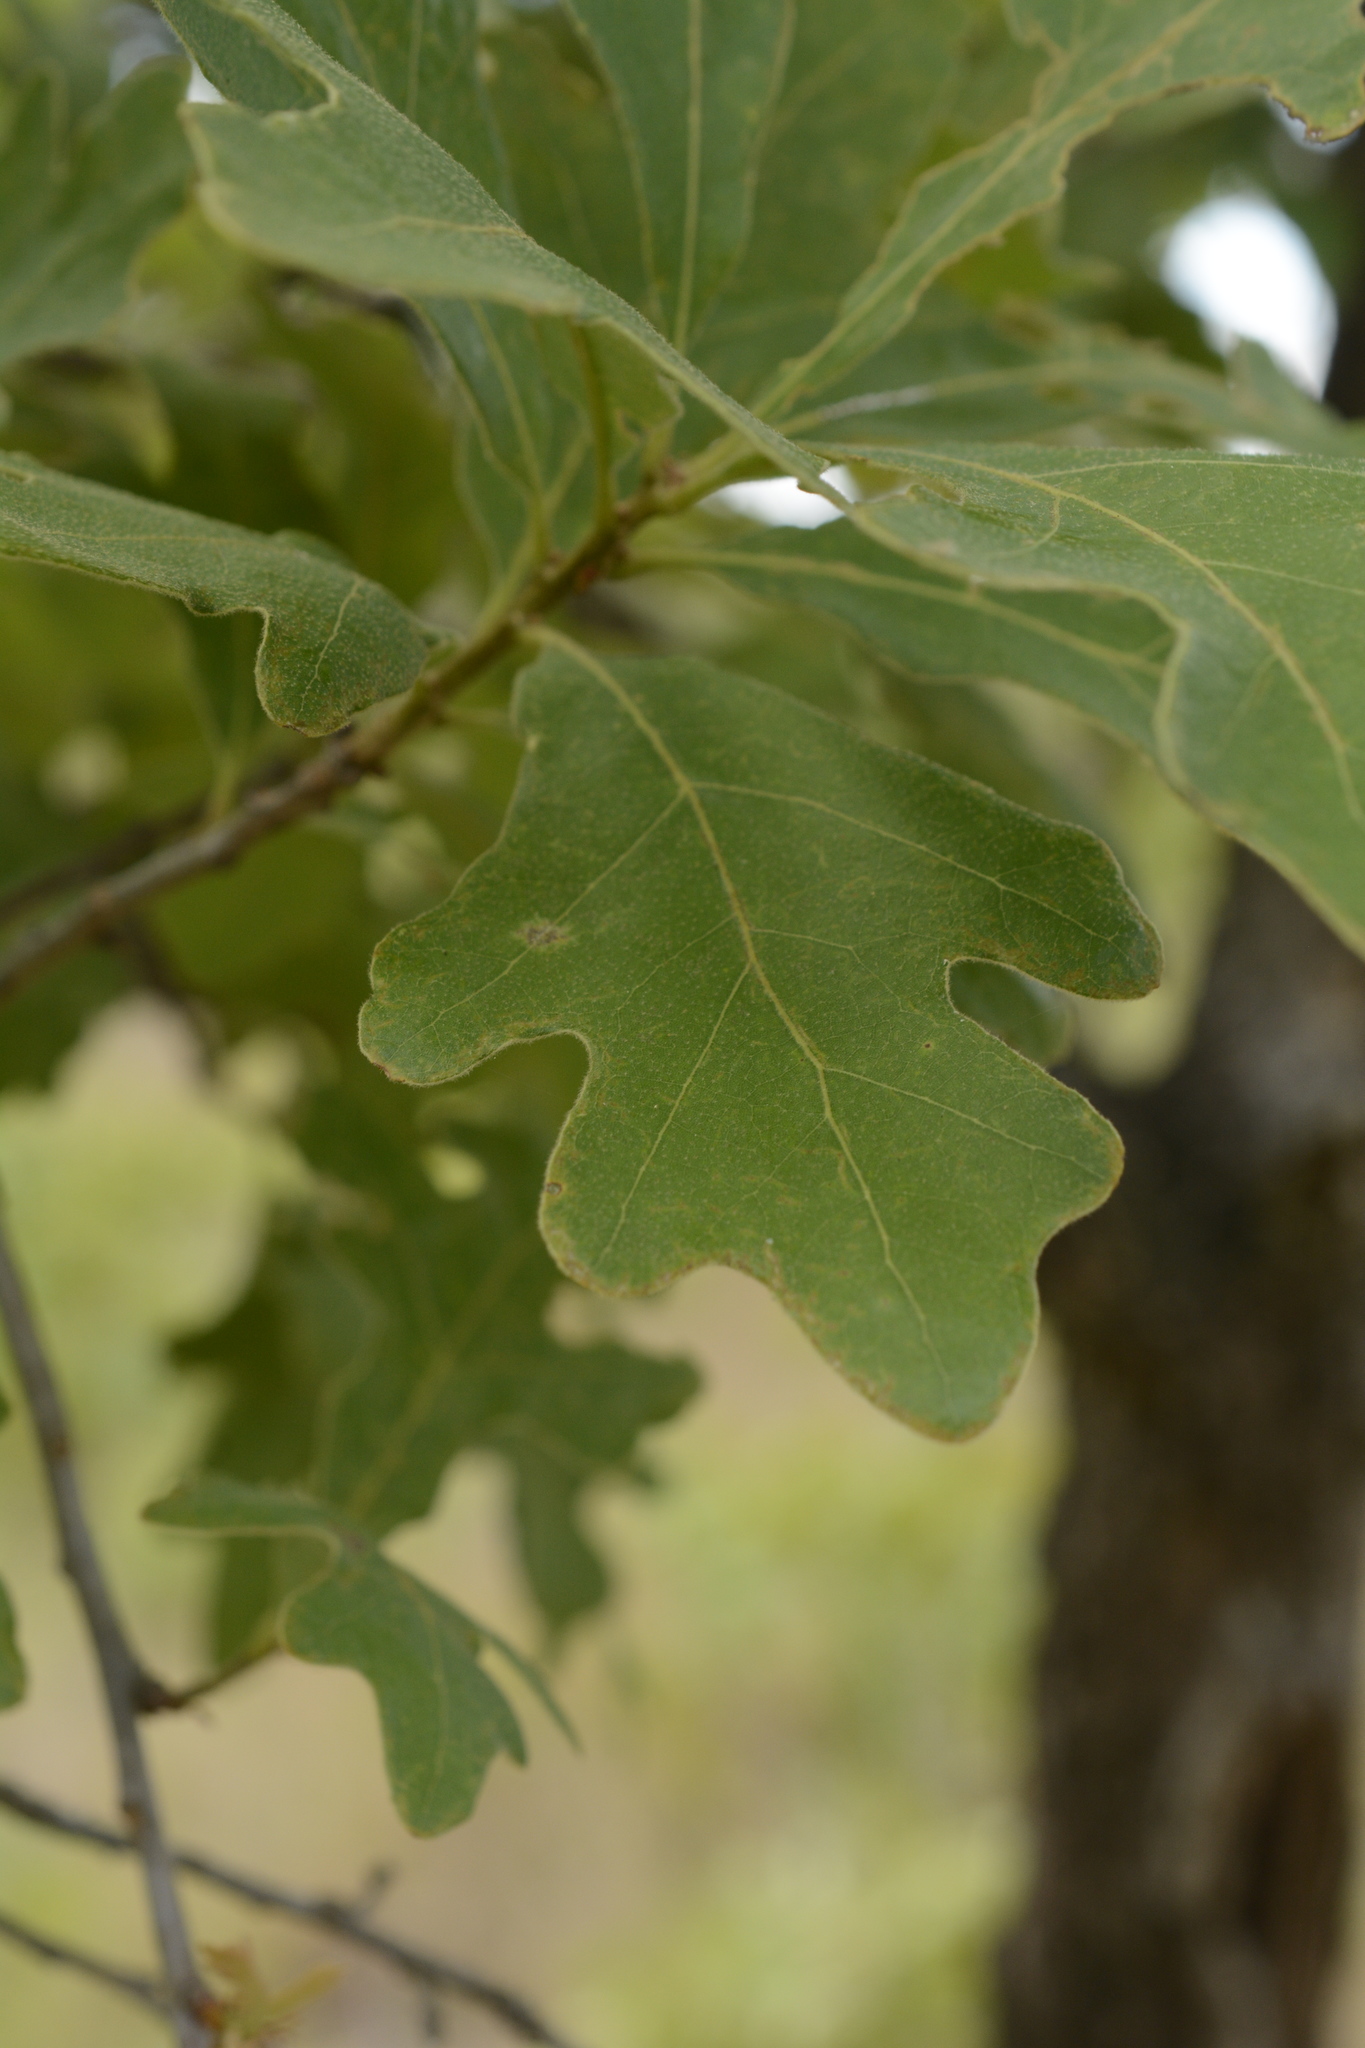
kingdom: Plantae
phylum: Tracheophyta
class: Magnoliopsida
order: Fagales
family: Fagaceae
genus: Quercus
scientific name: Quercus margaretiae
